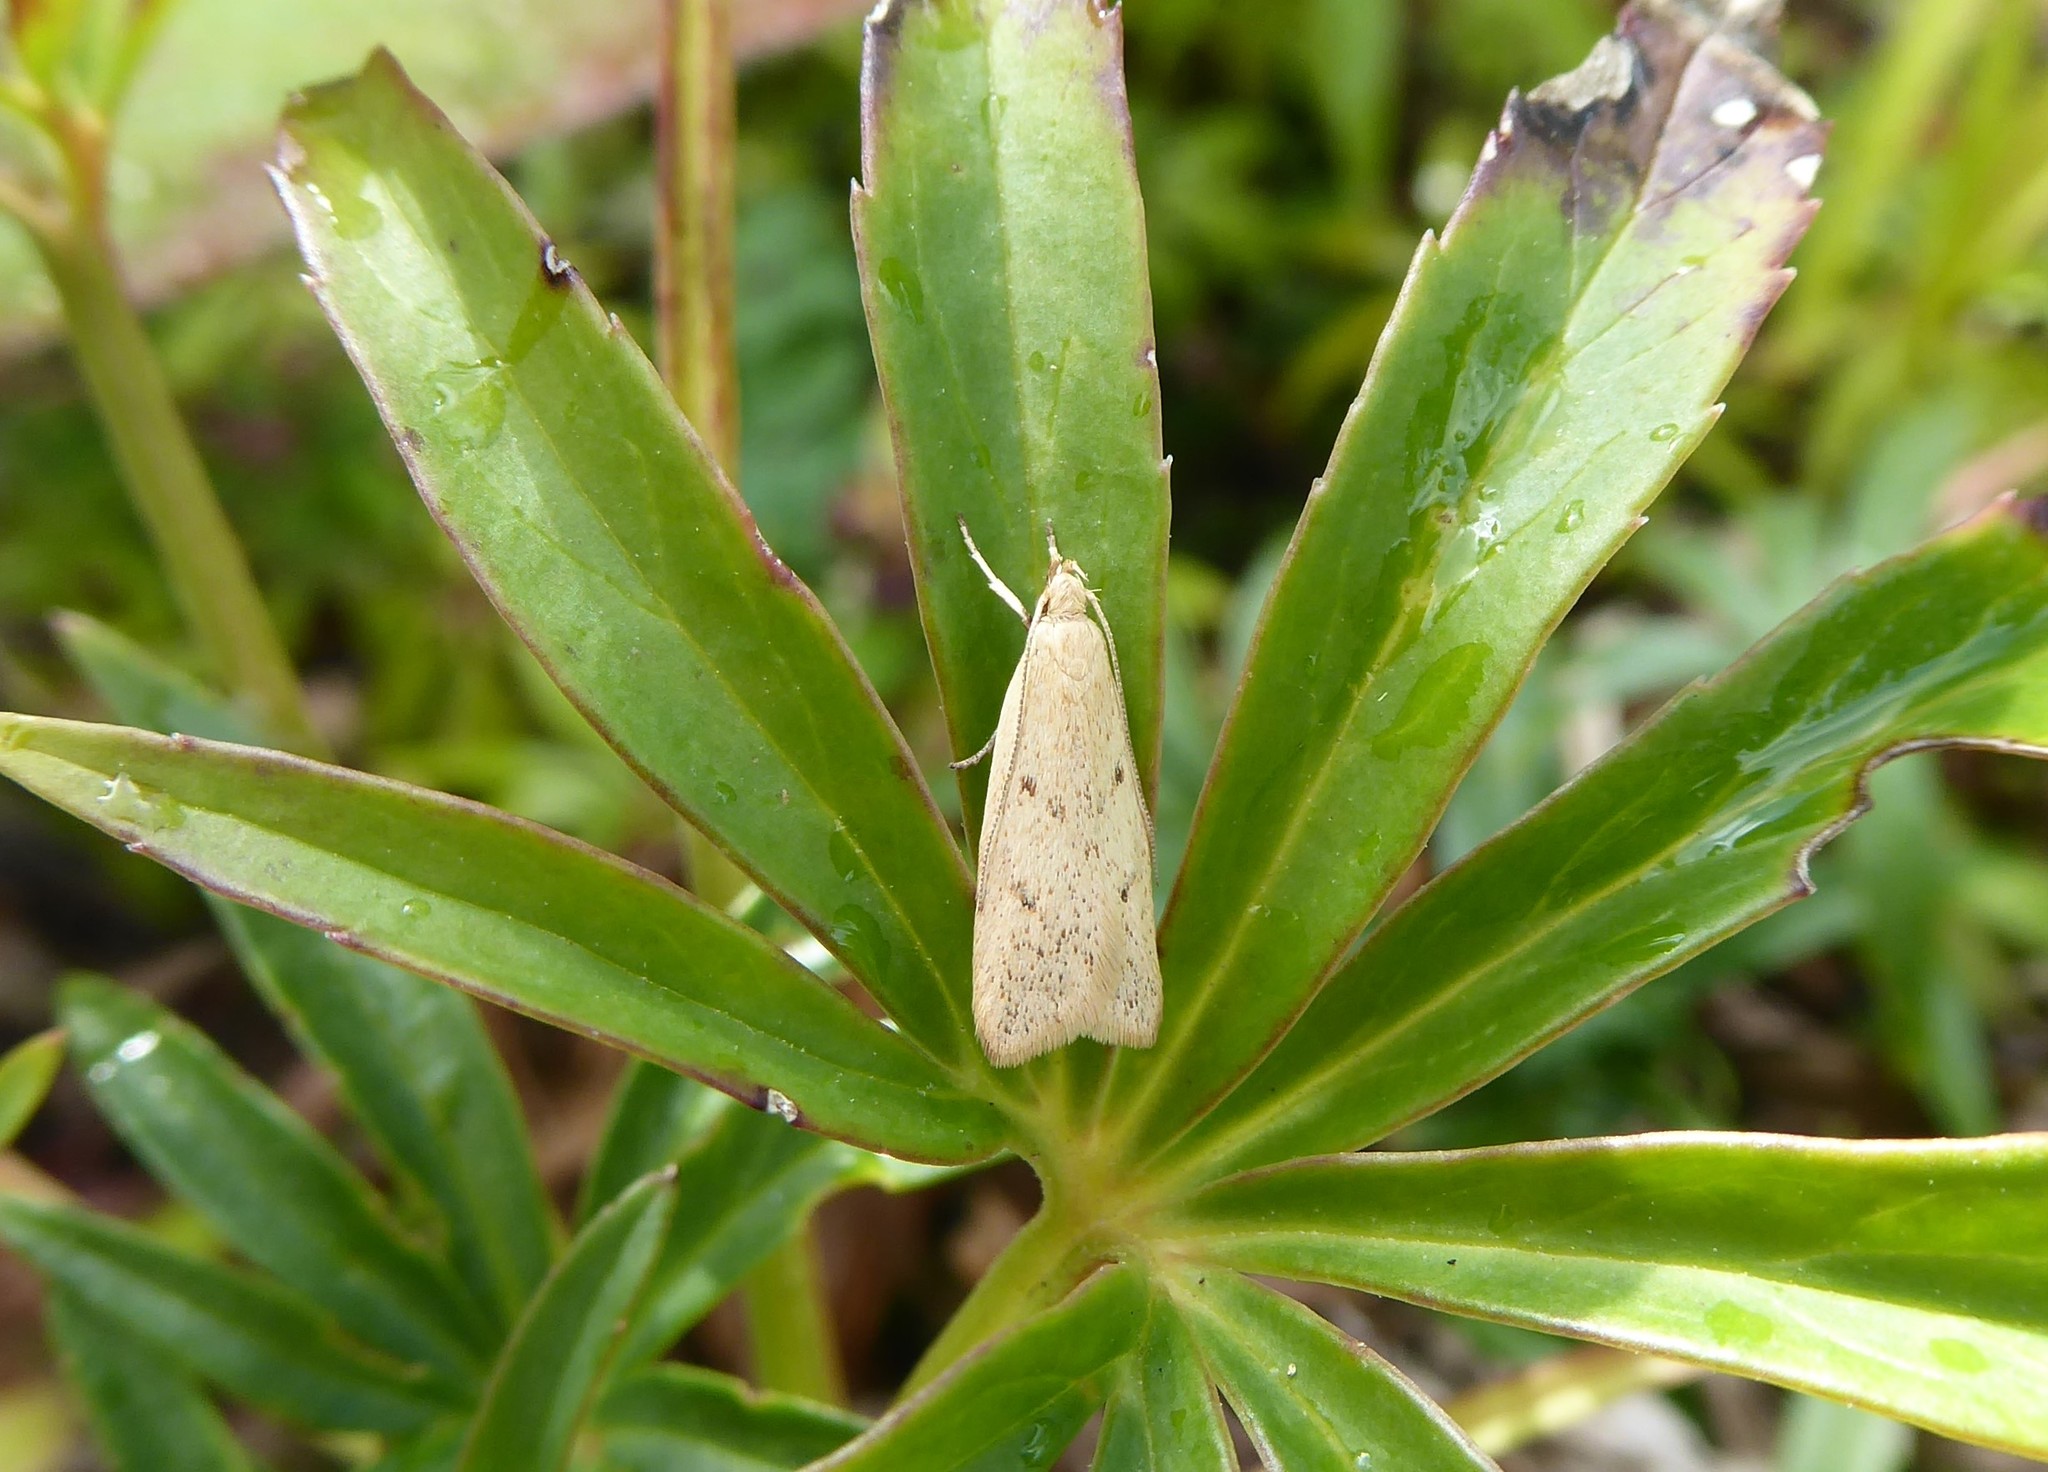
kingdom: Animalia
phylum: Arthropoda
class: Insecta
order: Lepidoptera
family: Oecophoridae
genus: Gymnobathra
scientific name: Gymnobathra sarcoxantha
